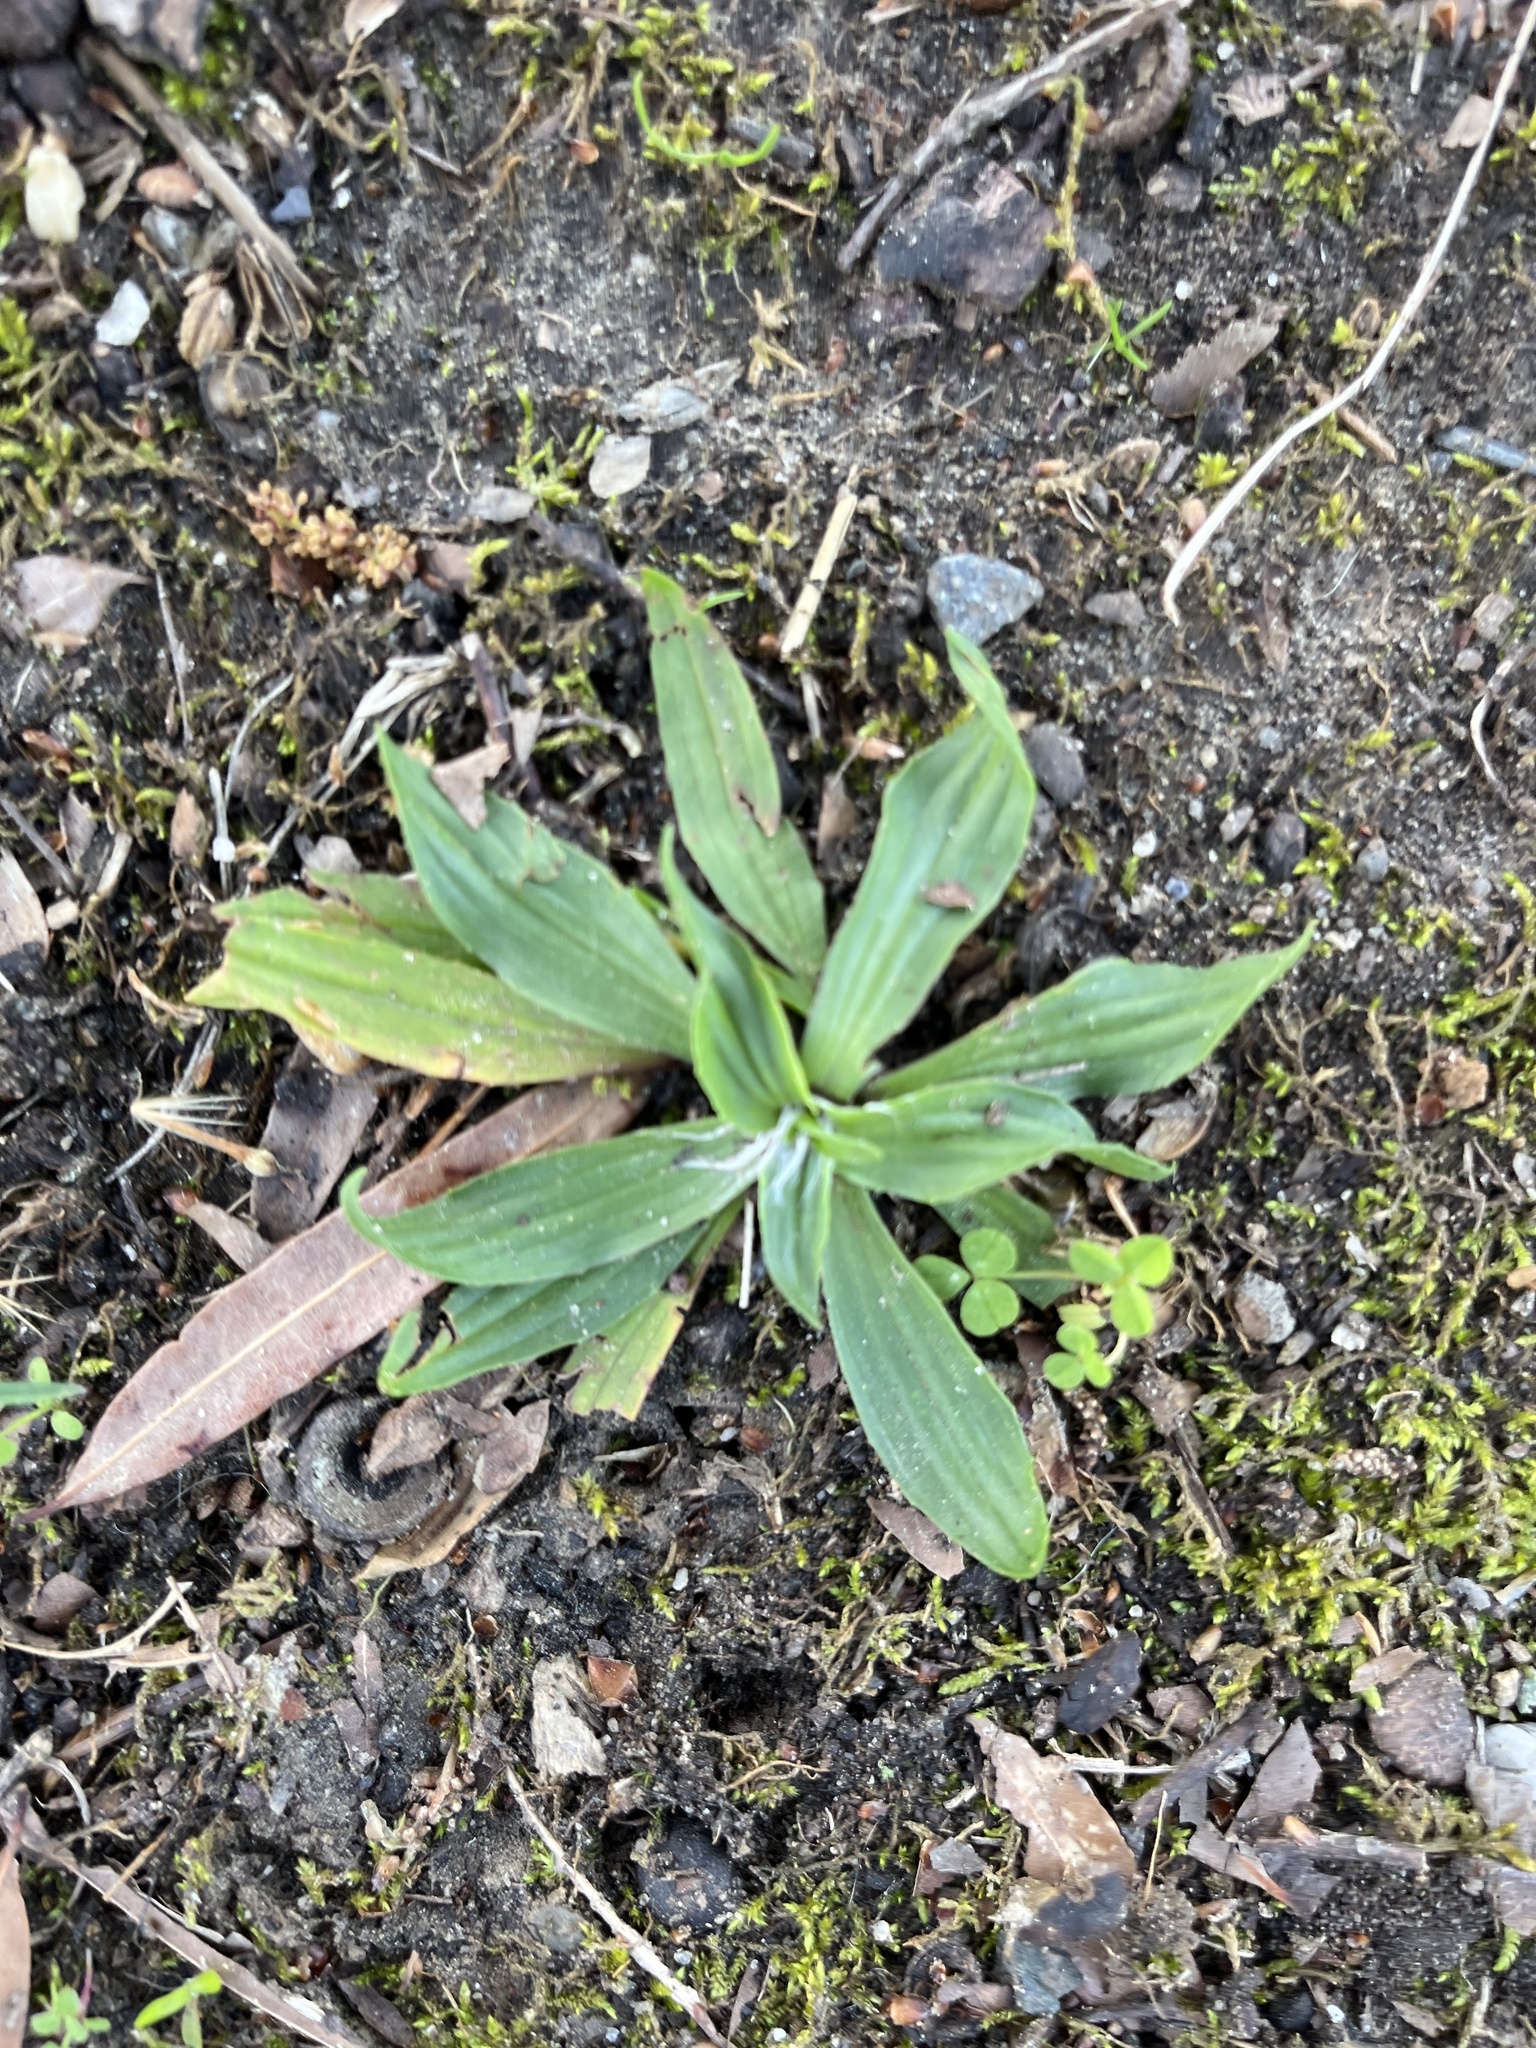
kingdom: Plantae
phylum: Tracheophyta
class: Magnoliopsida
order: Lamiales
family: Plantaginaceae
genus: Plantago
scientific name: Plantago lanceolata
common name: Ribwort plantain
